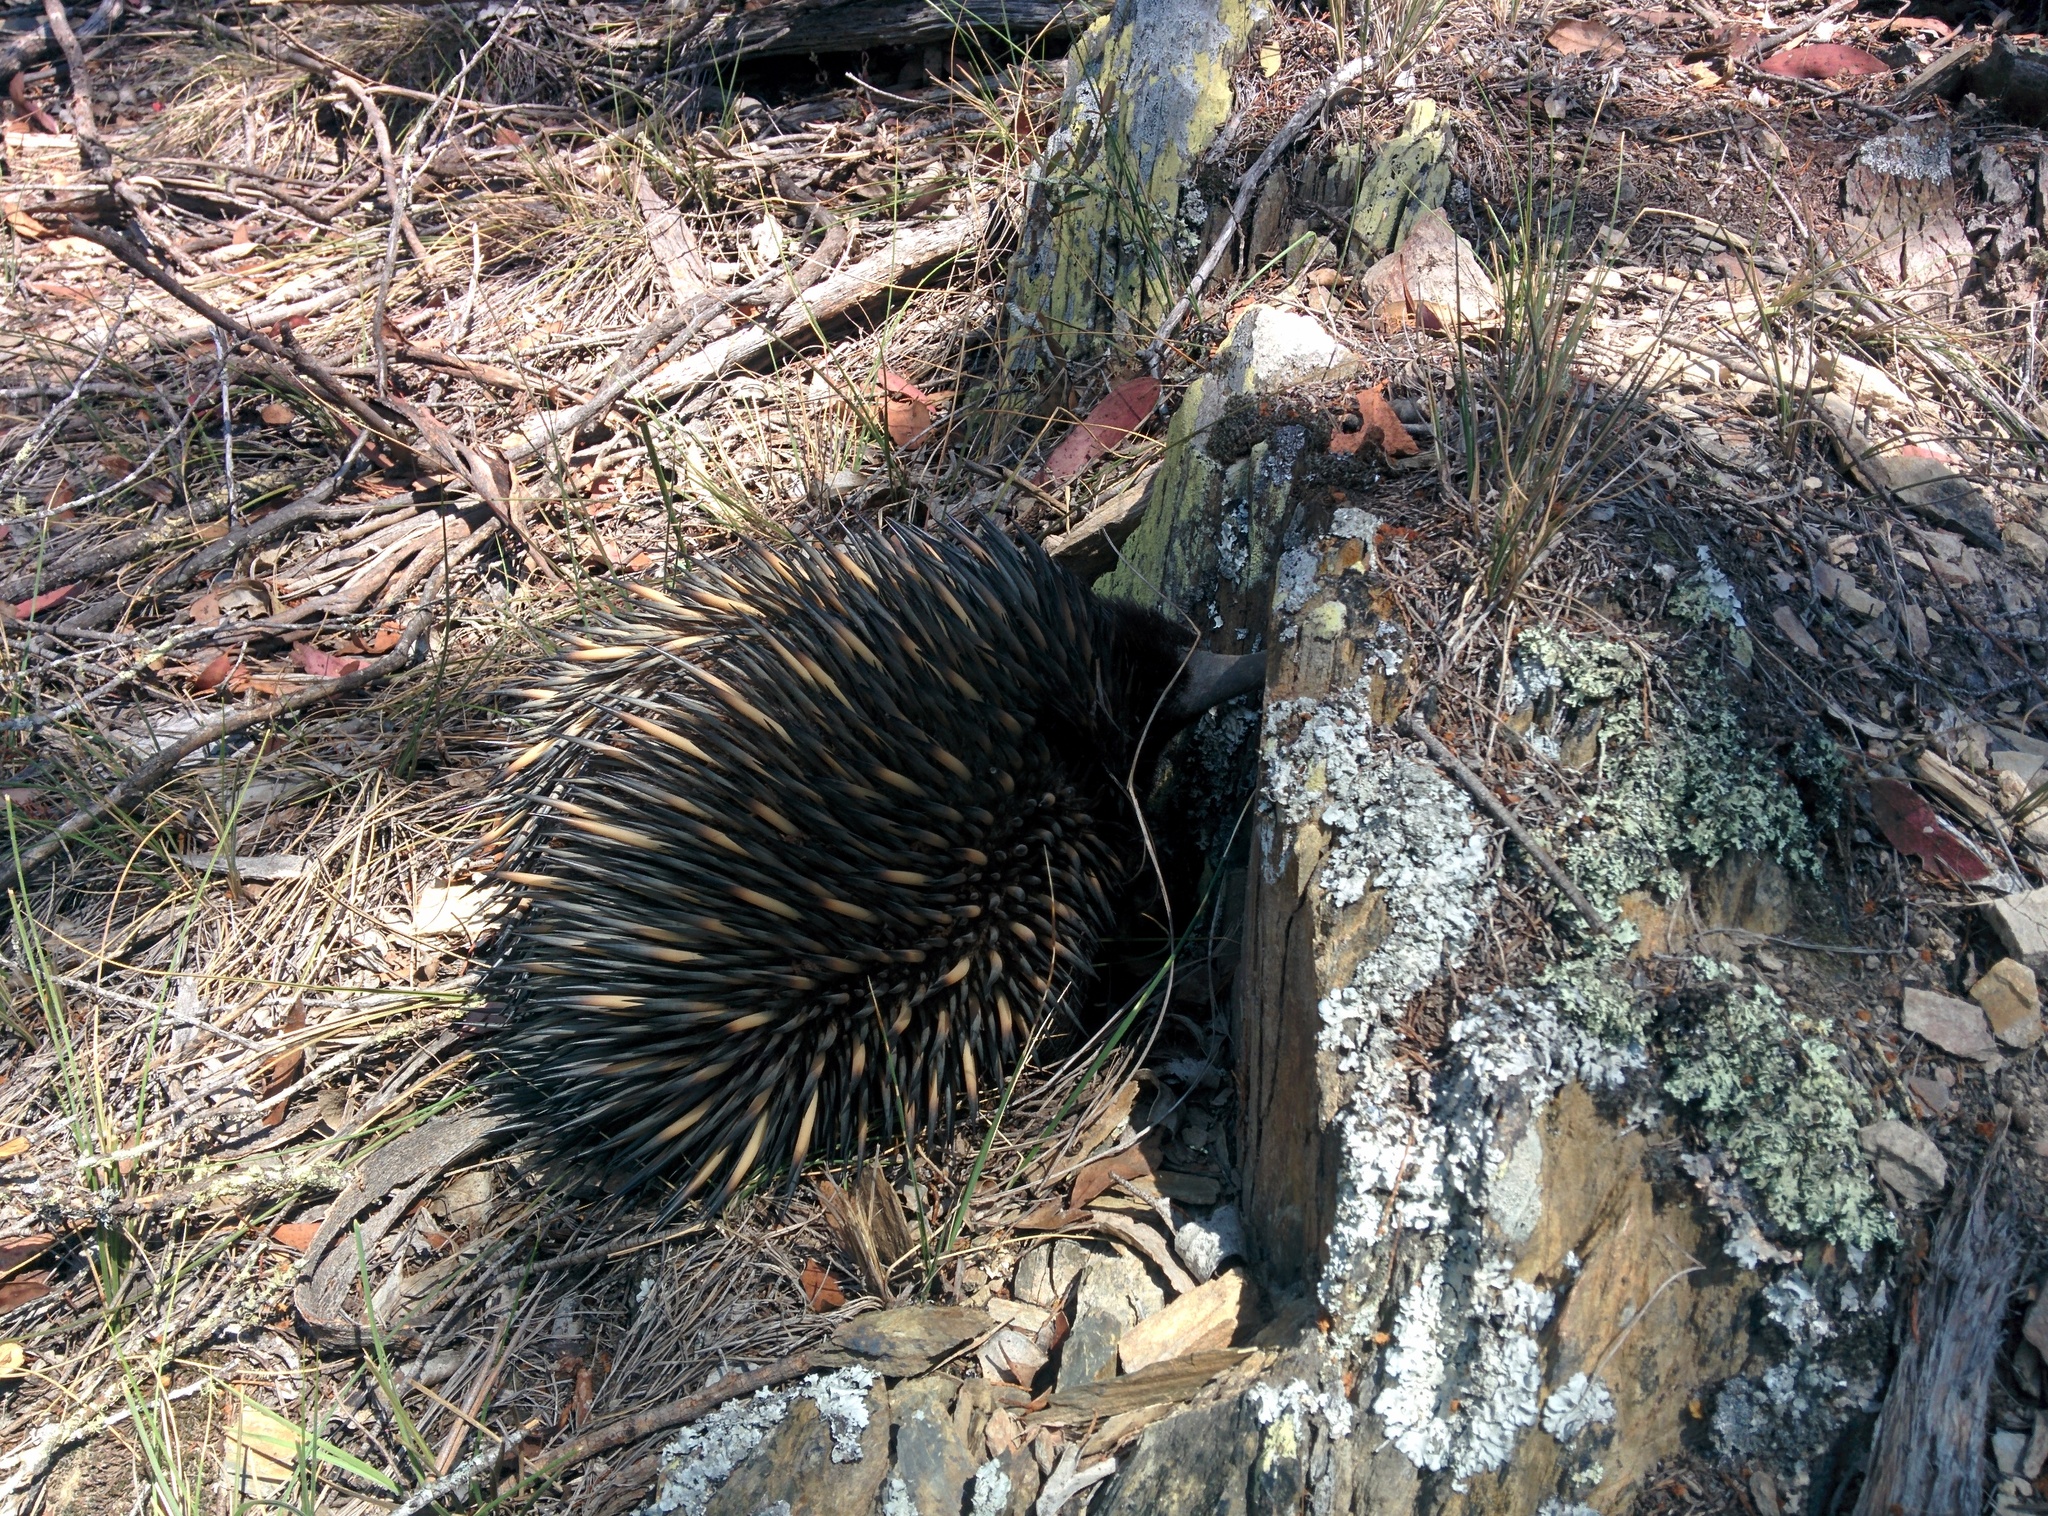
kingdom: Animalia
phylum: Chordata
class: Mammalia
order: Monotremata
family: Tachyglossidae
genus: Tachyglossus
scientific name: Tachyglossus aculeatus
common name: Short-beaked echidna
